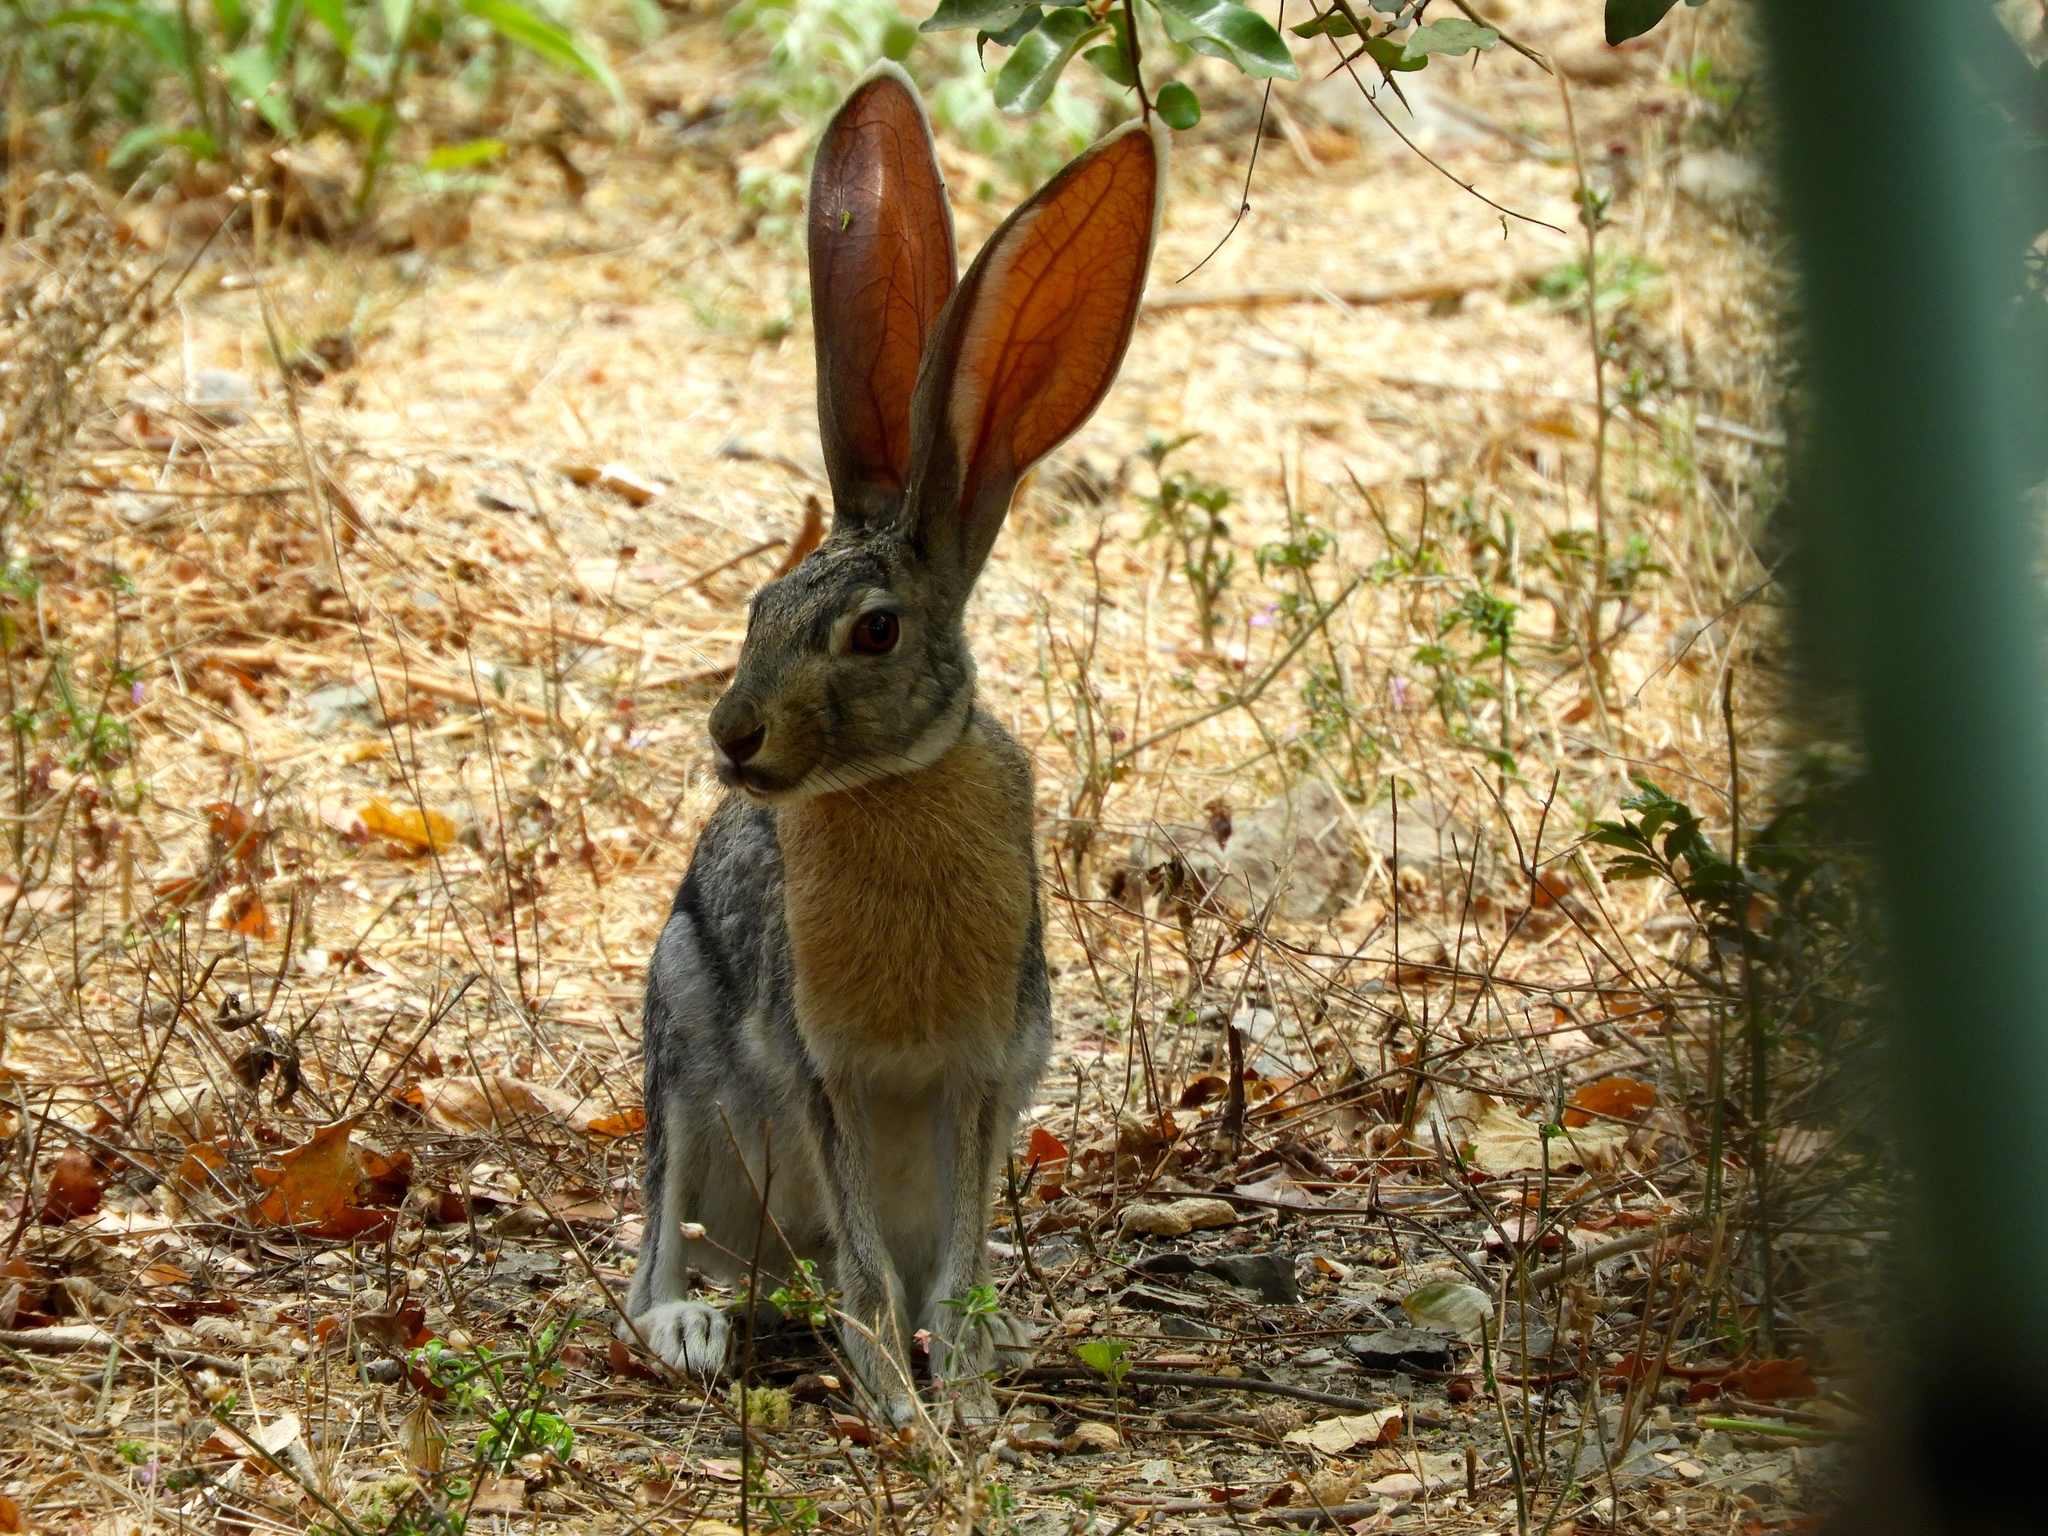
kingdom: Animalia
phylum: Chordata
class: Mammalia
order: Lagomorpha
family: Leporidae
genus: Lepus
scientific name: Lepus alleni
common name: Antelope jackrabbit
